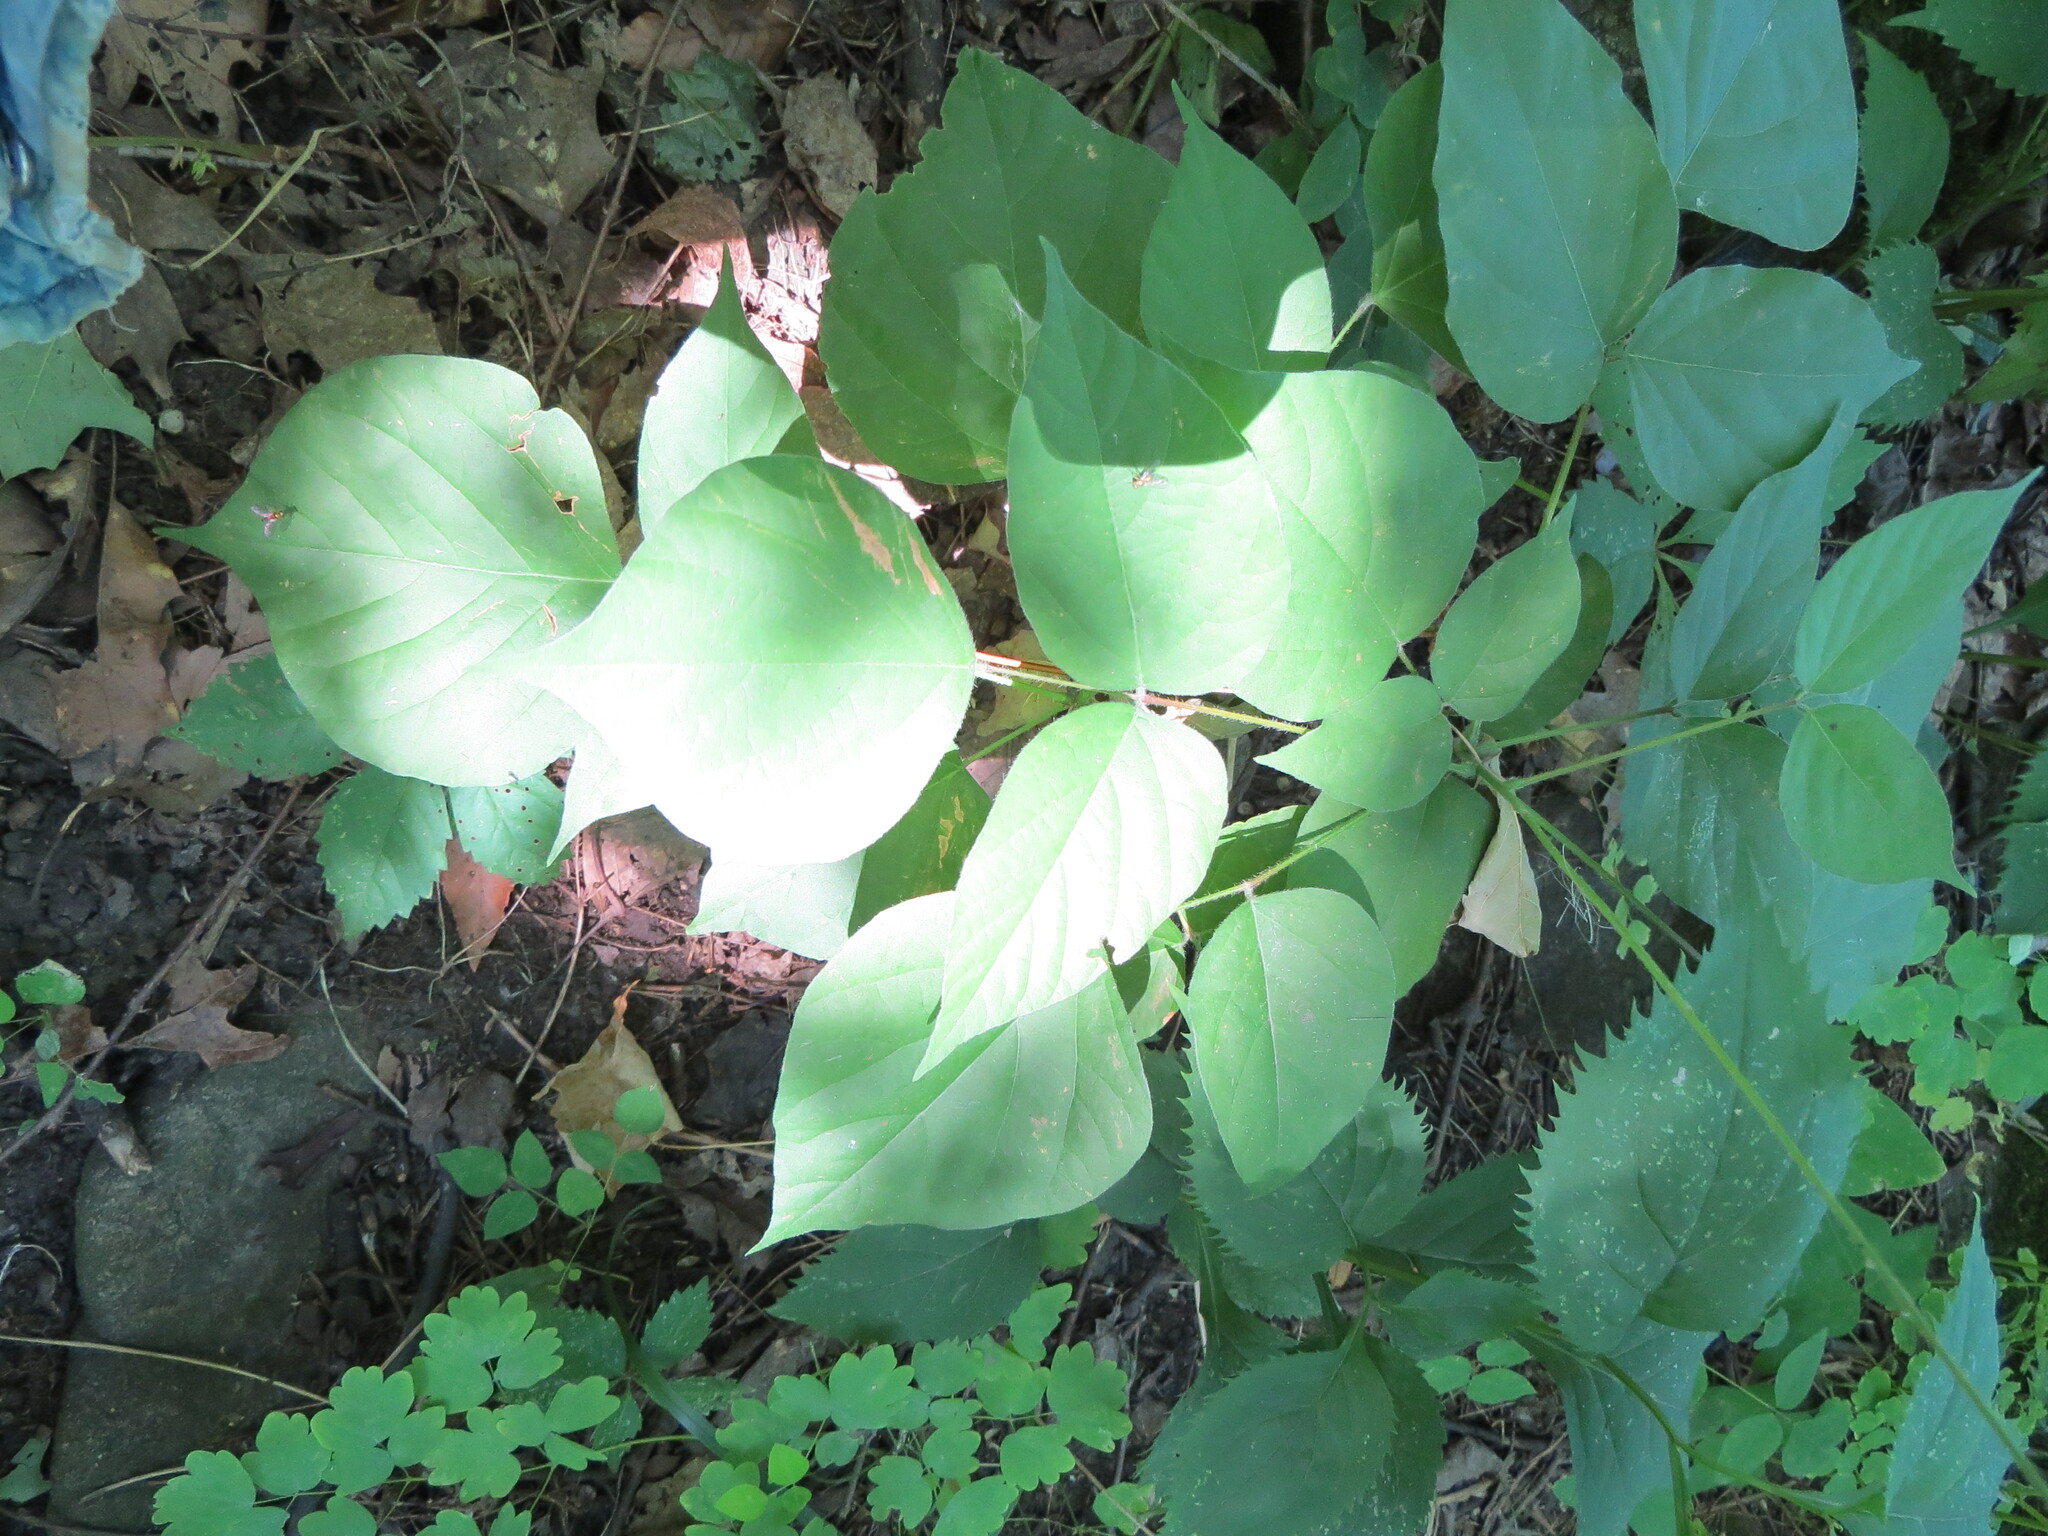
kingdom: Plantae
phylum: Tracheophyta
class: Magnoliopsida
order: Fabales
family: Fabaceae
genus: Hylodesmum
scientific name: Hylodesmum glutinosum
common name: Clustered-leaved tick-trefoil
